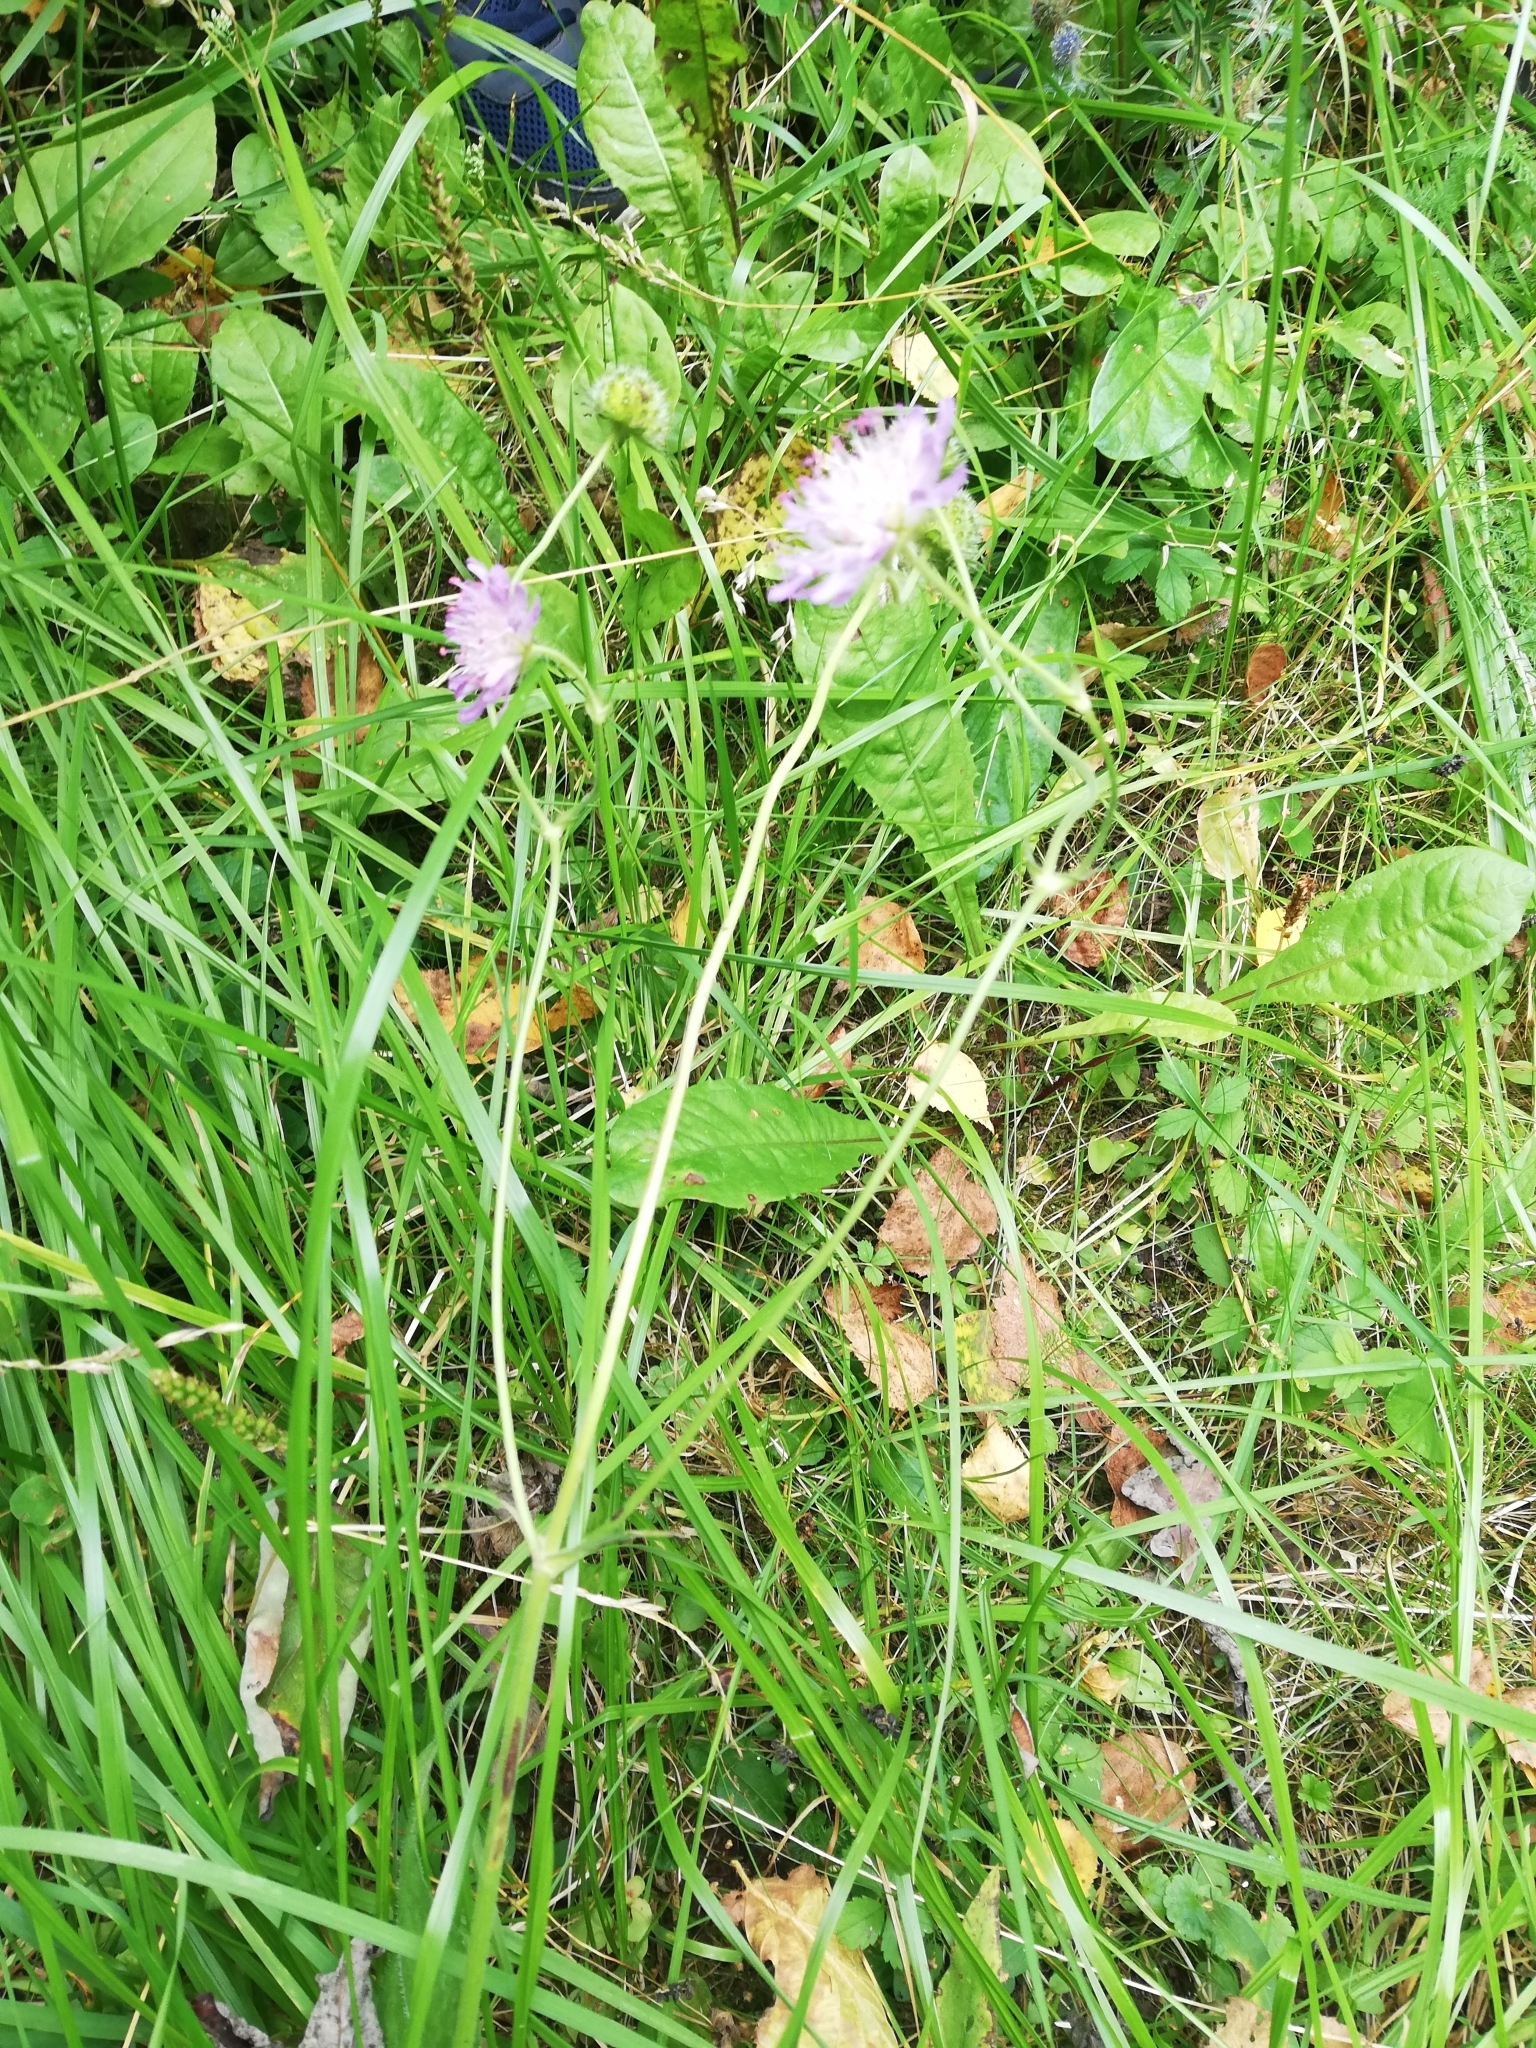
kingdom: Plantae
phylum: Tracheophyta
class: Magnoliopsida
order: Dipsacales
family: Caprifoliaceae
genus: Knautia
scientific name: Knautia arvensis
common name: Field scabiosa
